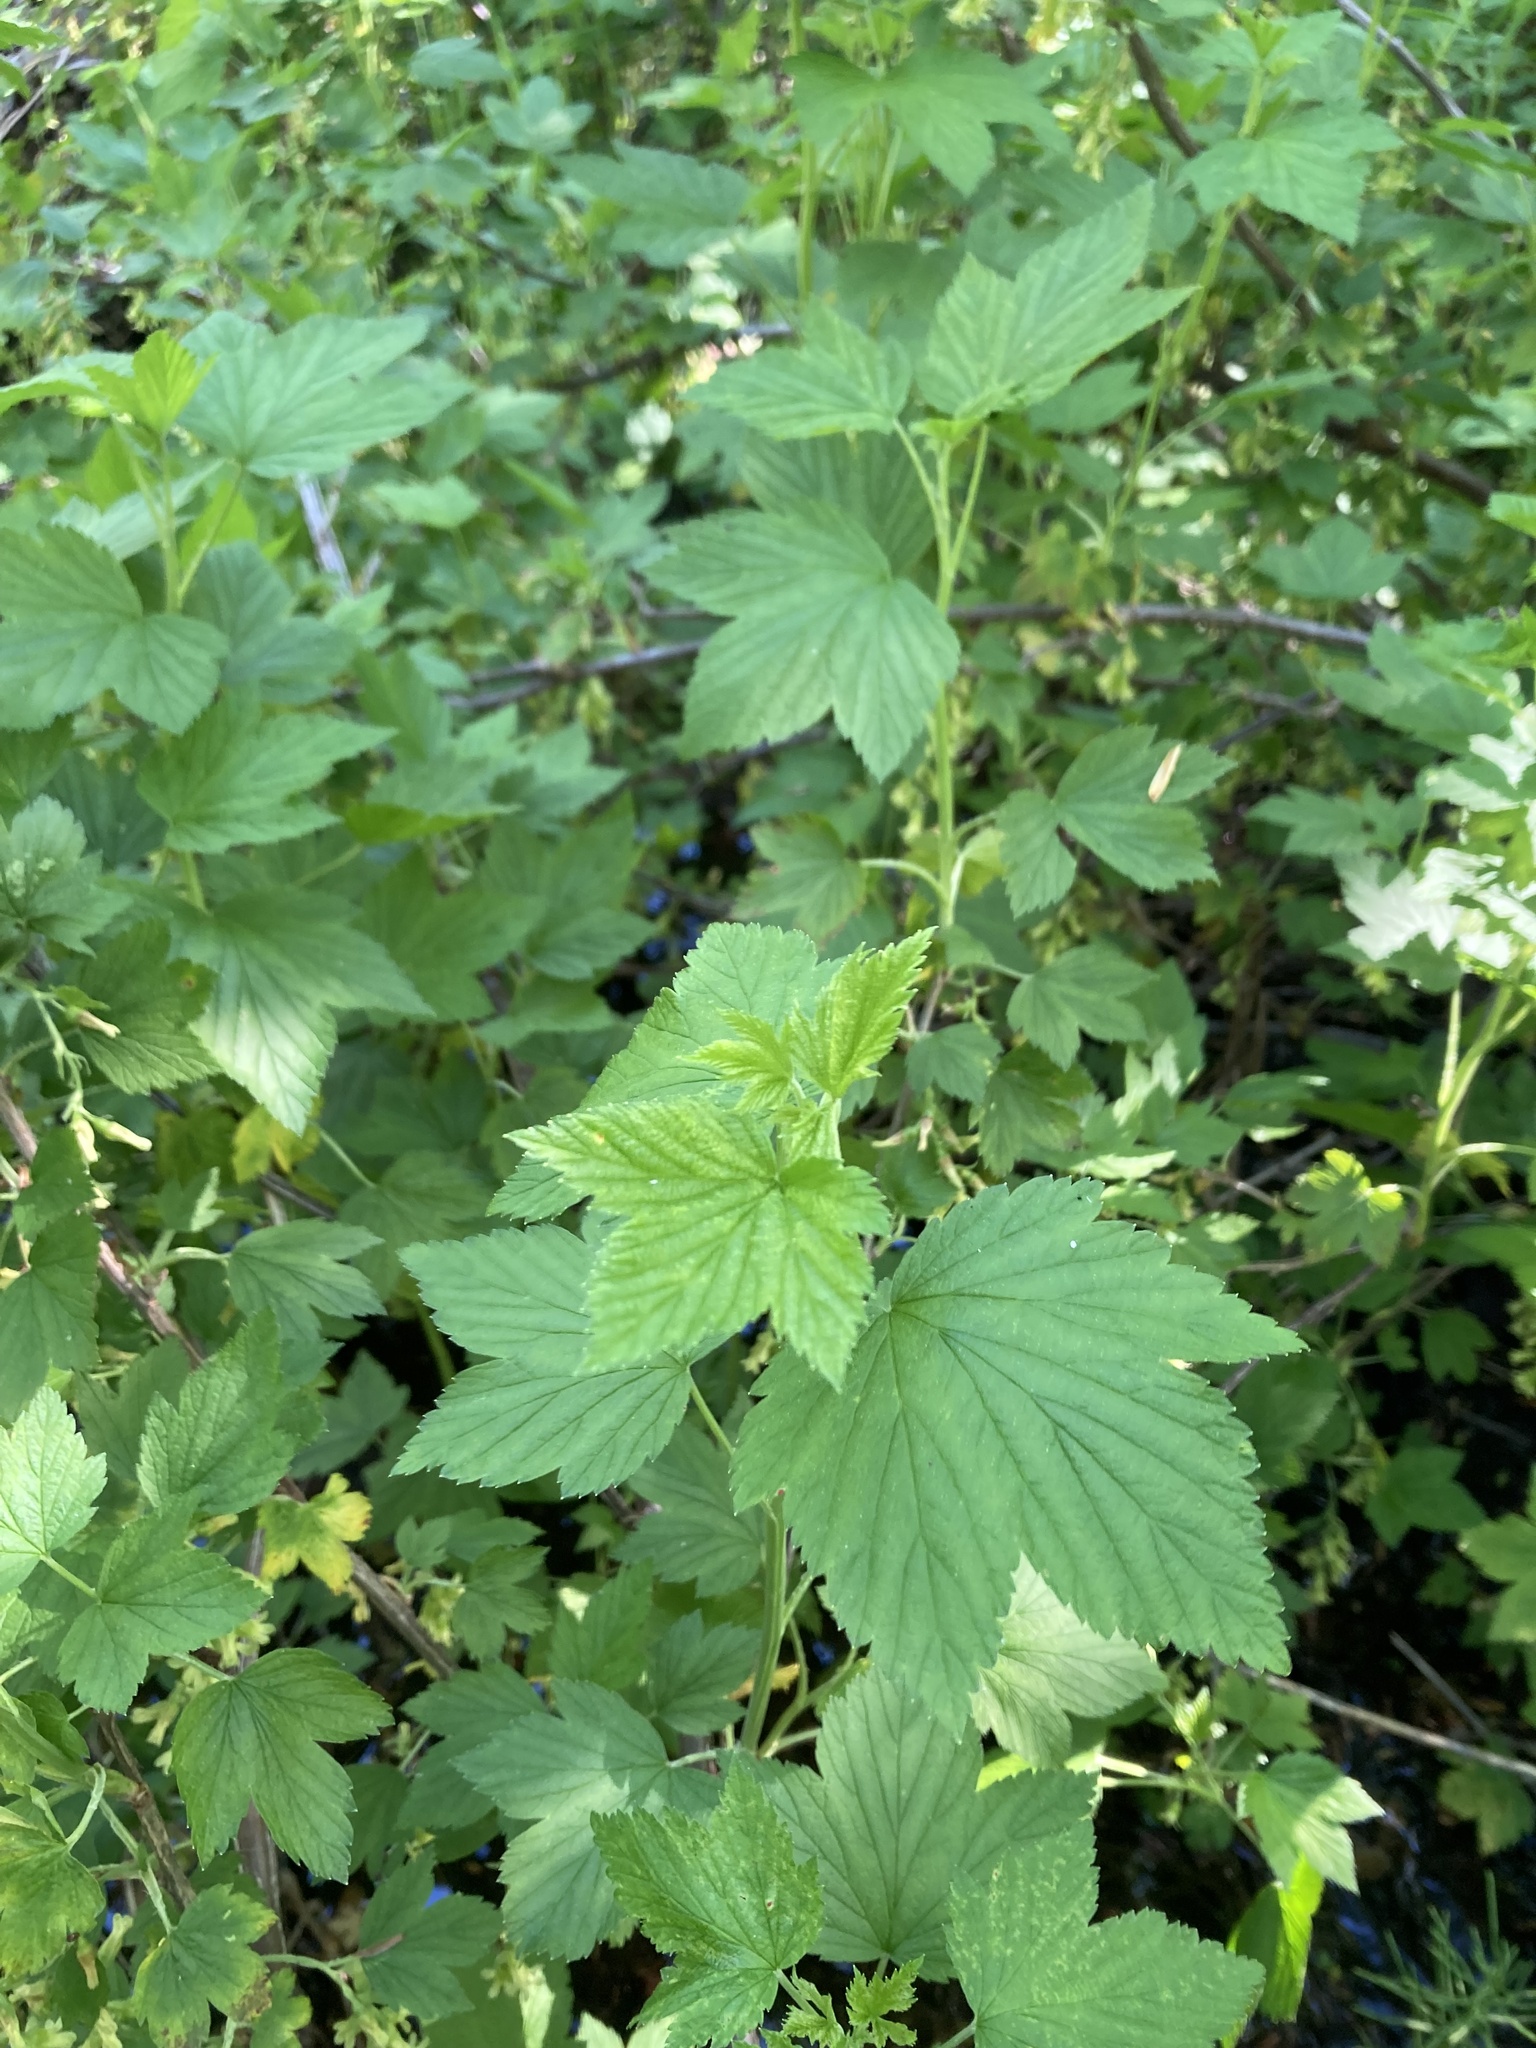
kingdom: Plantae
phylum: Tracheophyta
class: Magnoliopsida
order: Saxifragales
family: Grossulariaceae
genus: Ribes
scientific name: Ribes americanum
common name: American black currant
